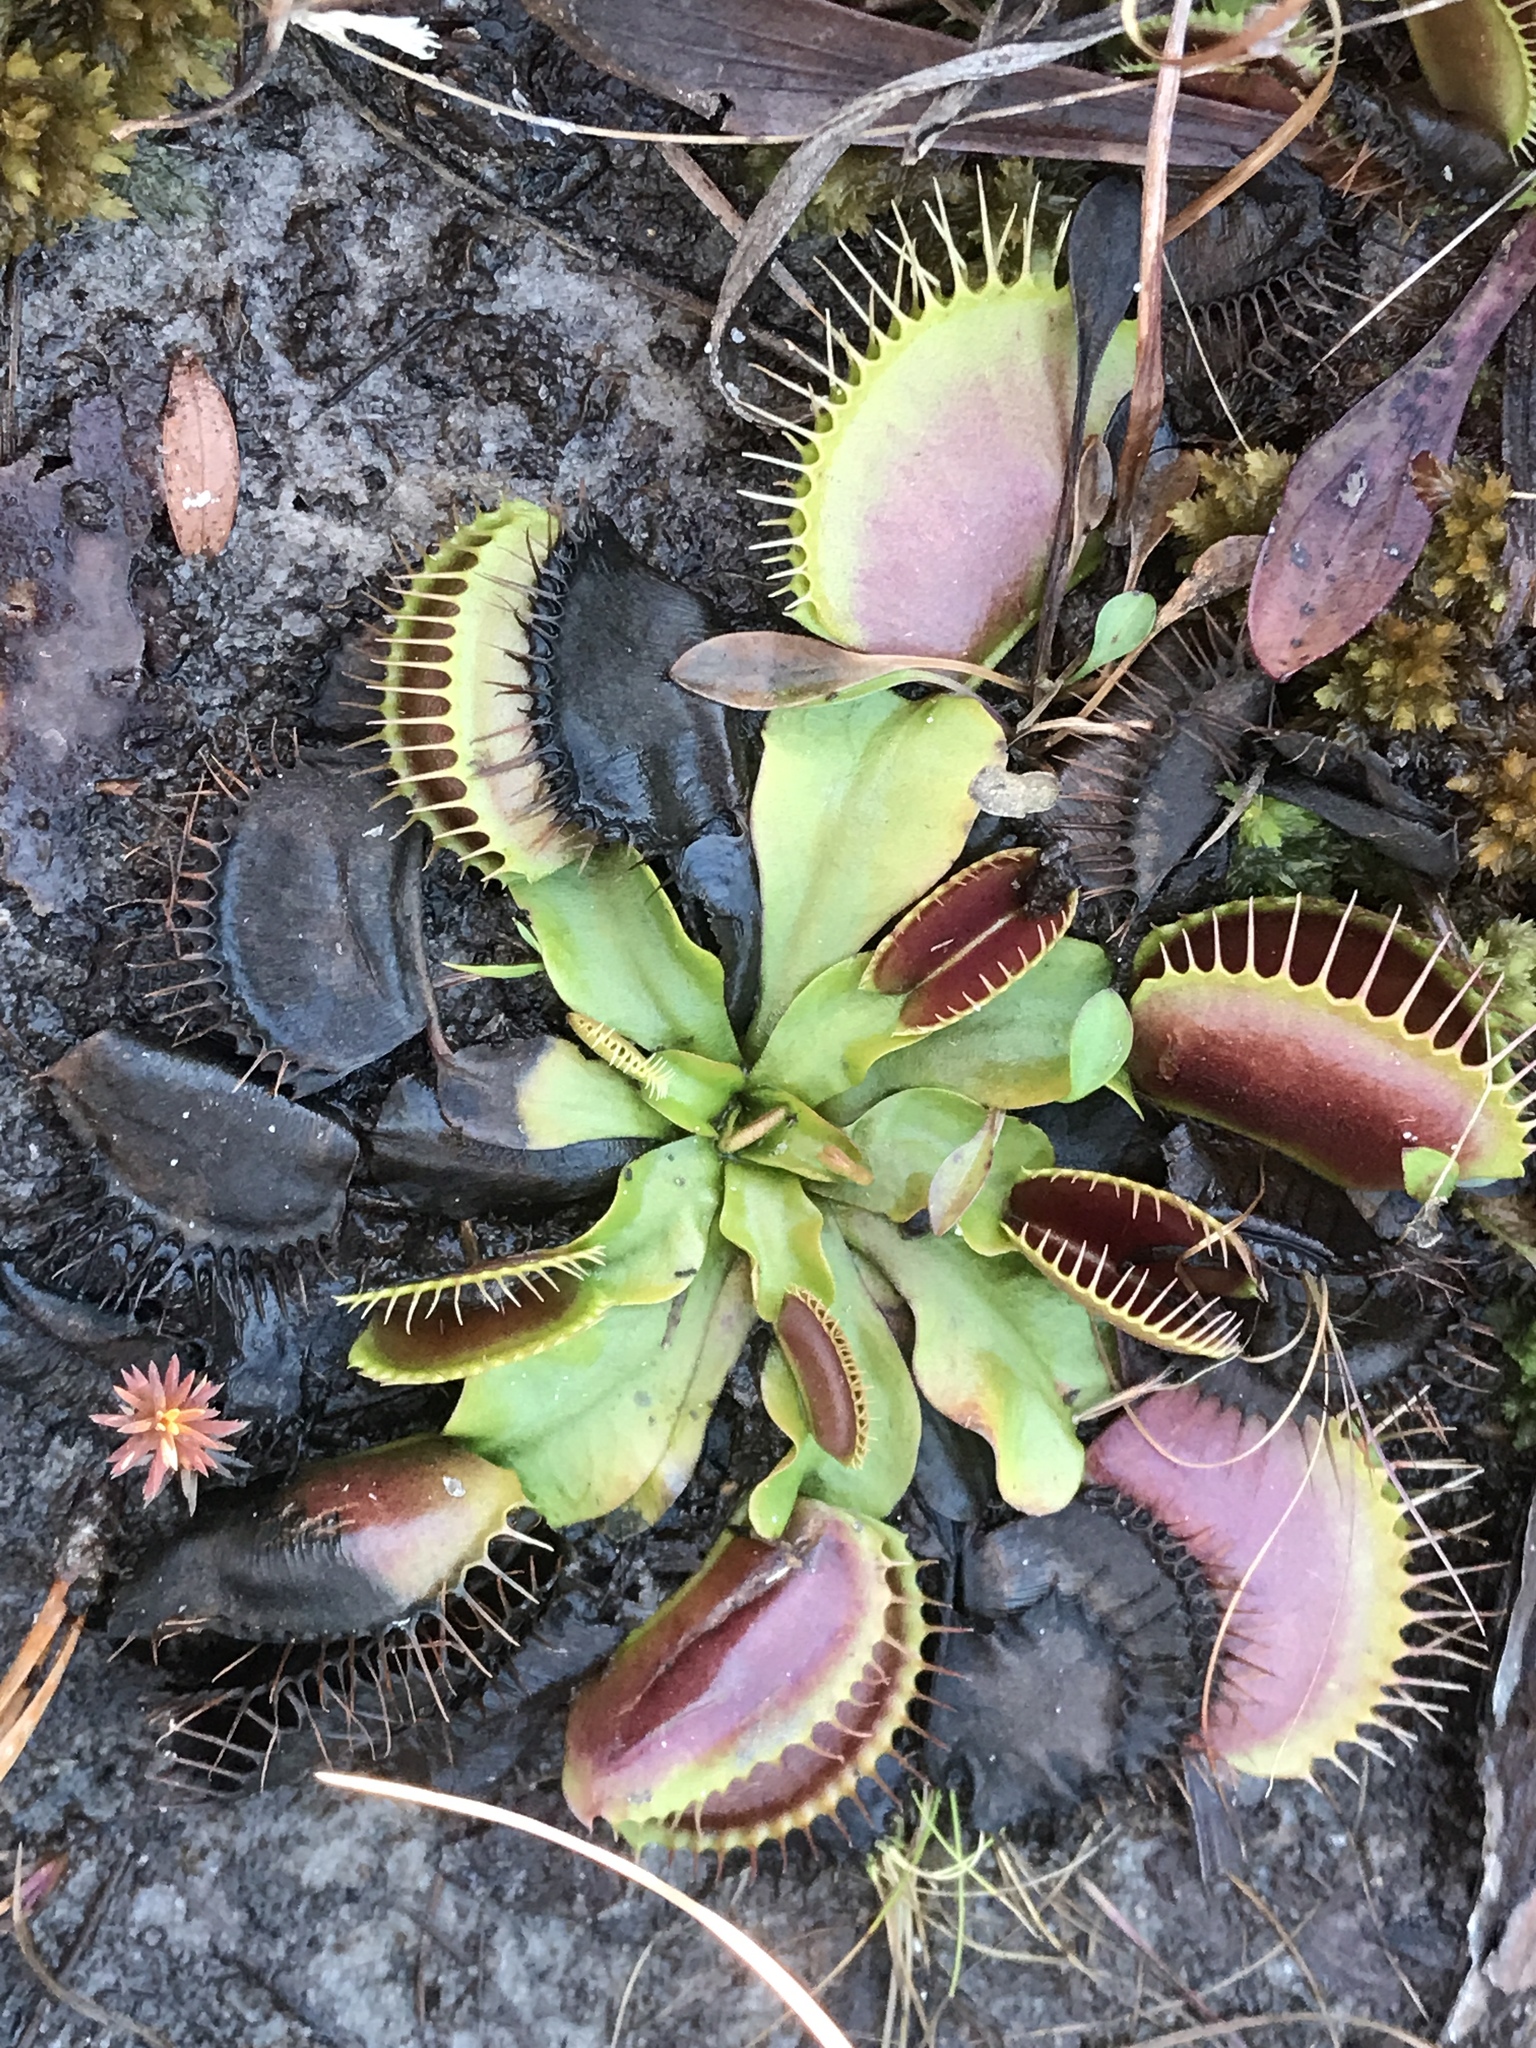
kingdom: Plantae
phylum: Tracheophyta
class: Magnoliopsida
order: Caryophyllales
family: Droseraceae
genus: Dionaea
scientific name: Dionaea muscipula
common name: Venus flytrap
